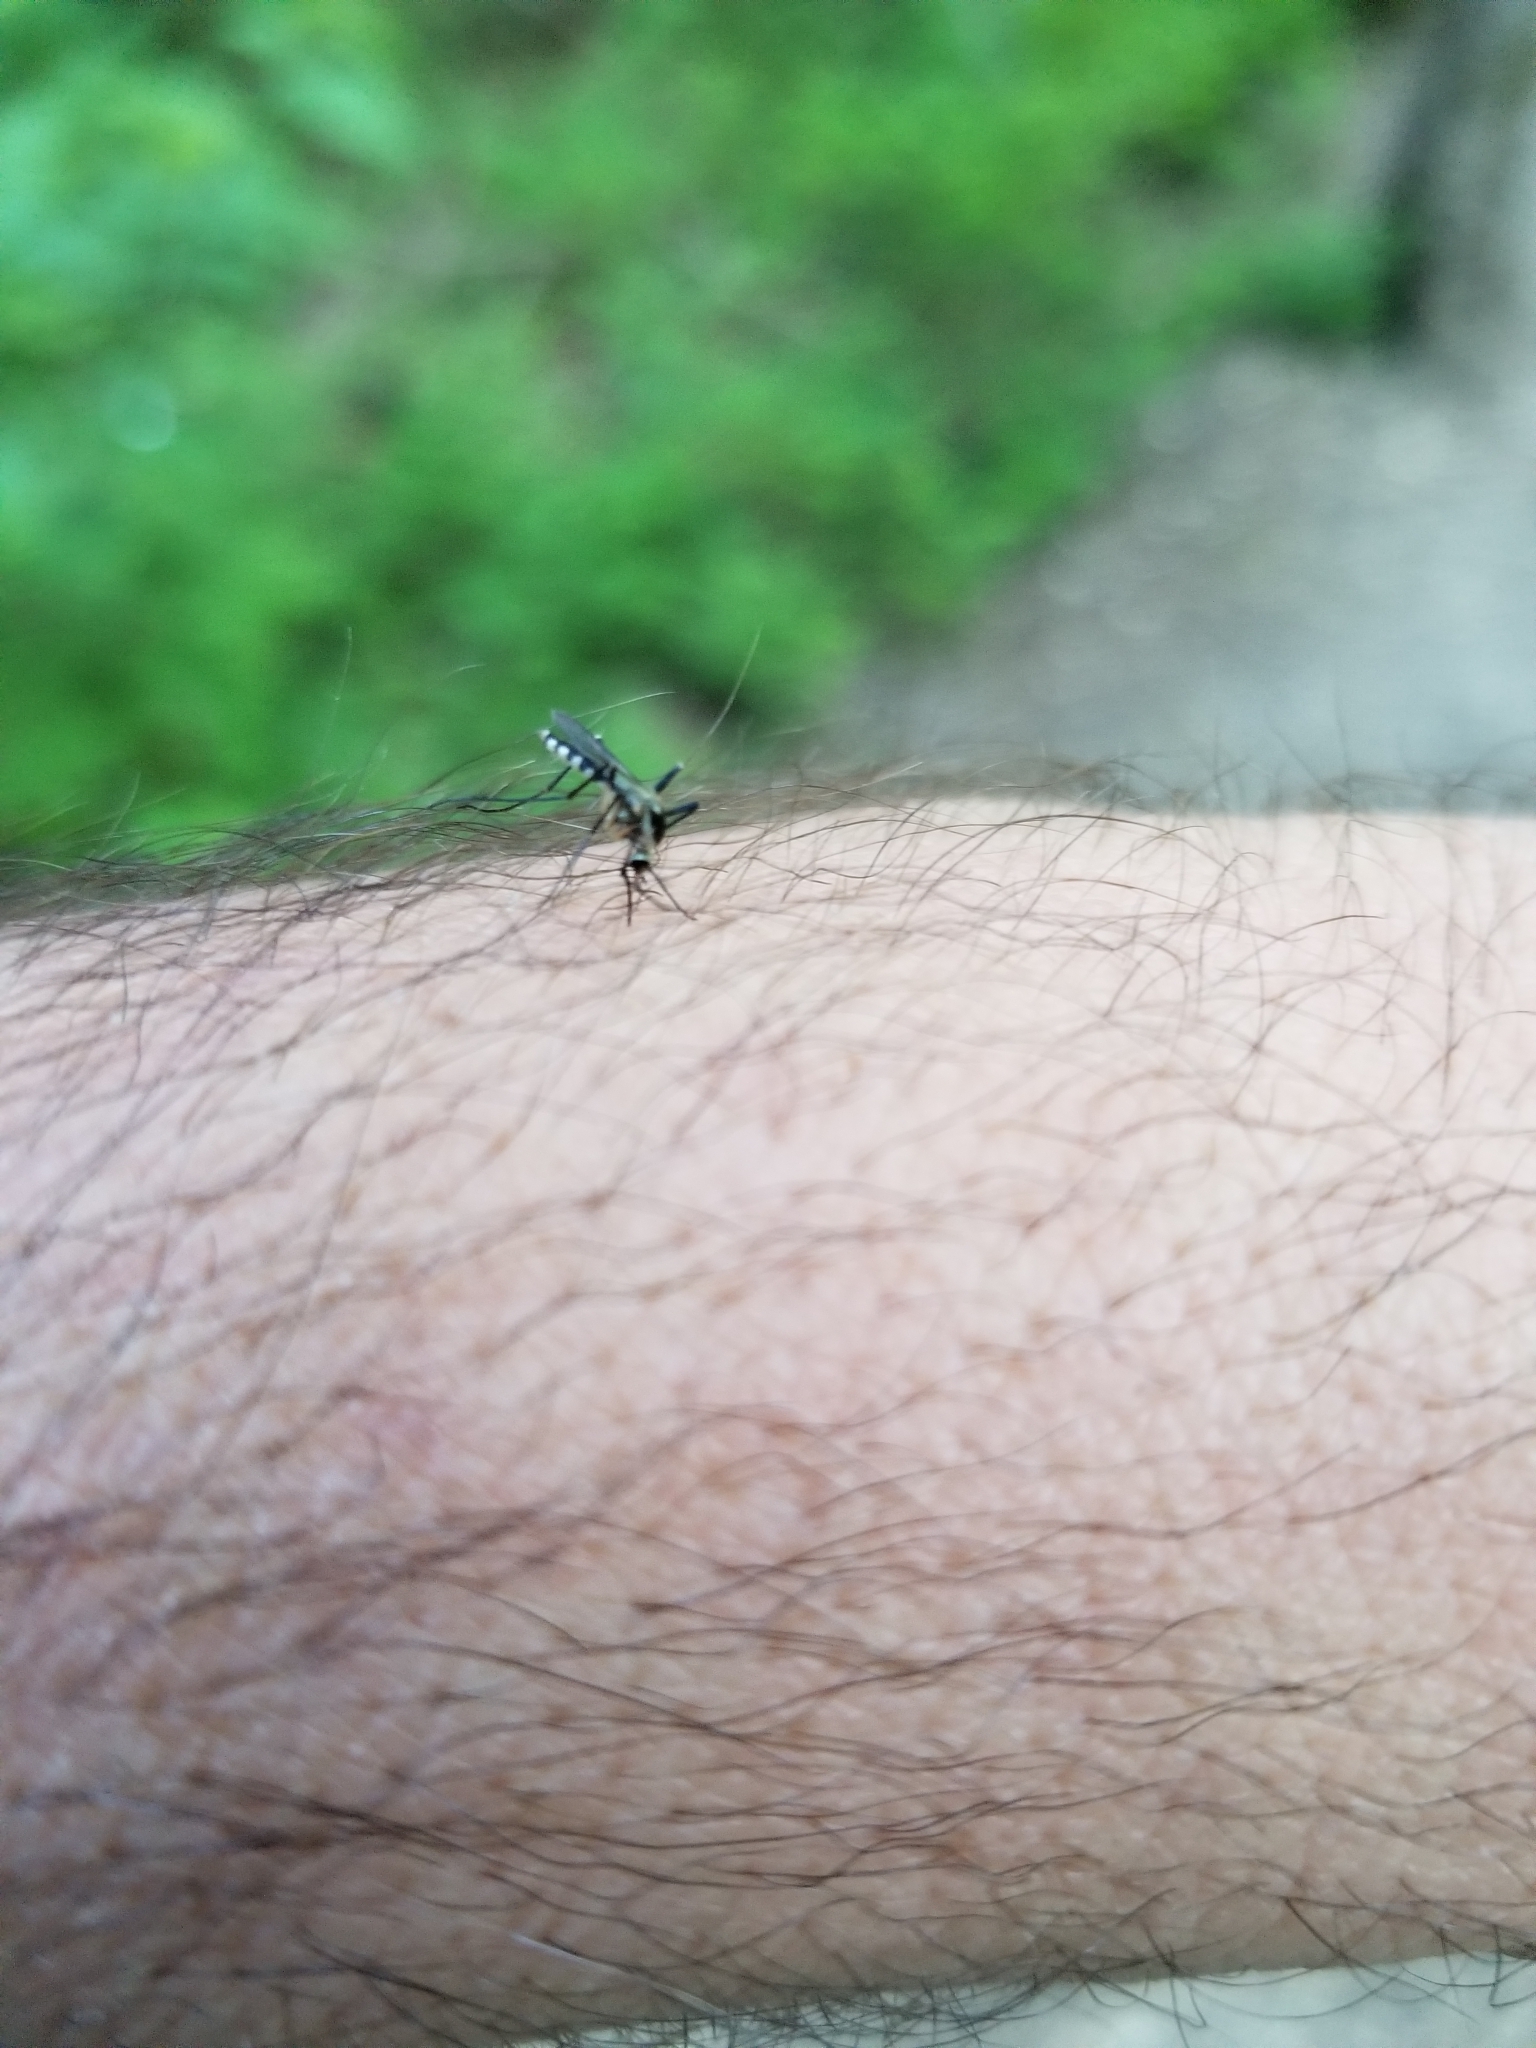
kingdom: Animalia
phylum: Arthropoda
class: Insecta
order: Diptera
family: Culicidae
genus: Aedes
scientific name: Aedes triseriatus
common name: Eastern treehole mosquito
